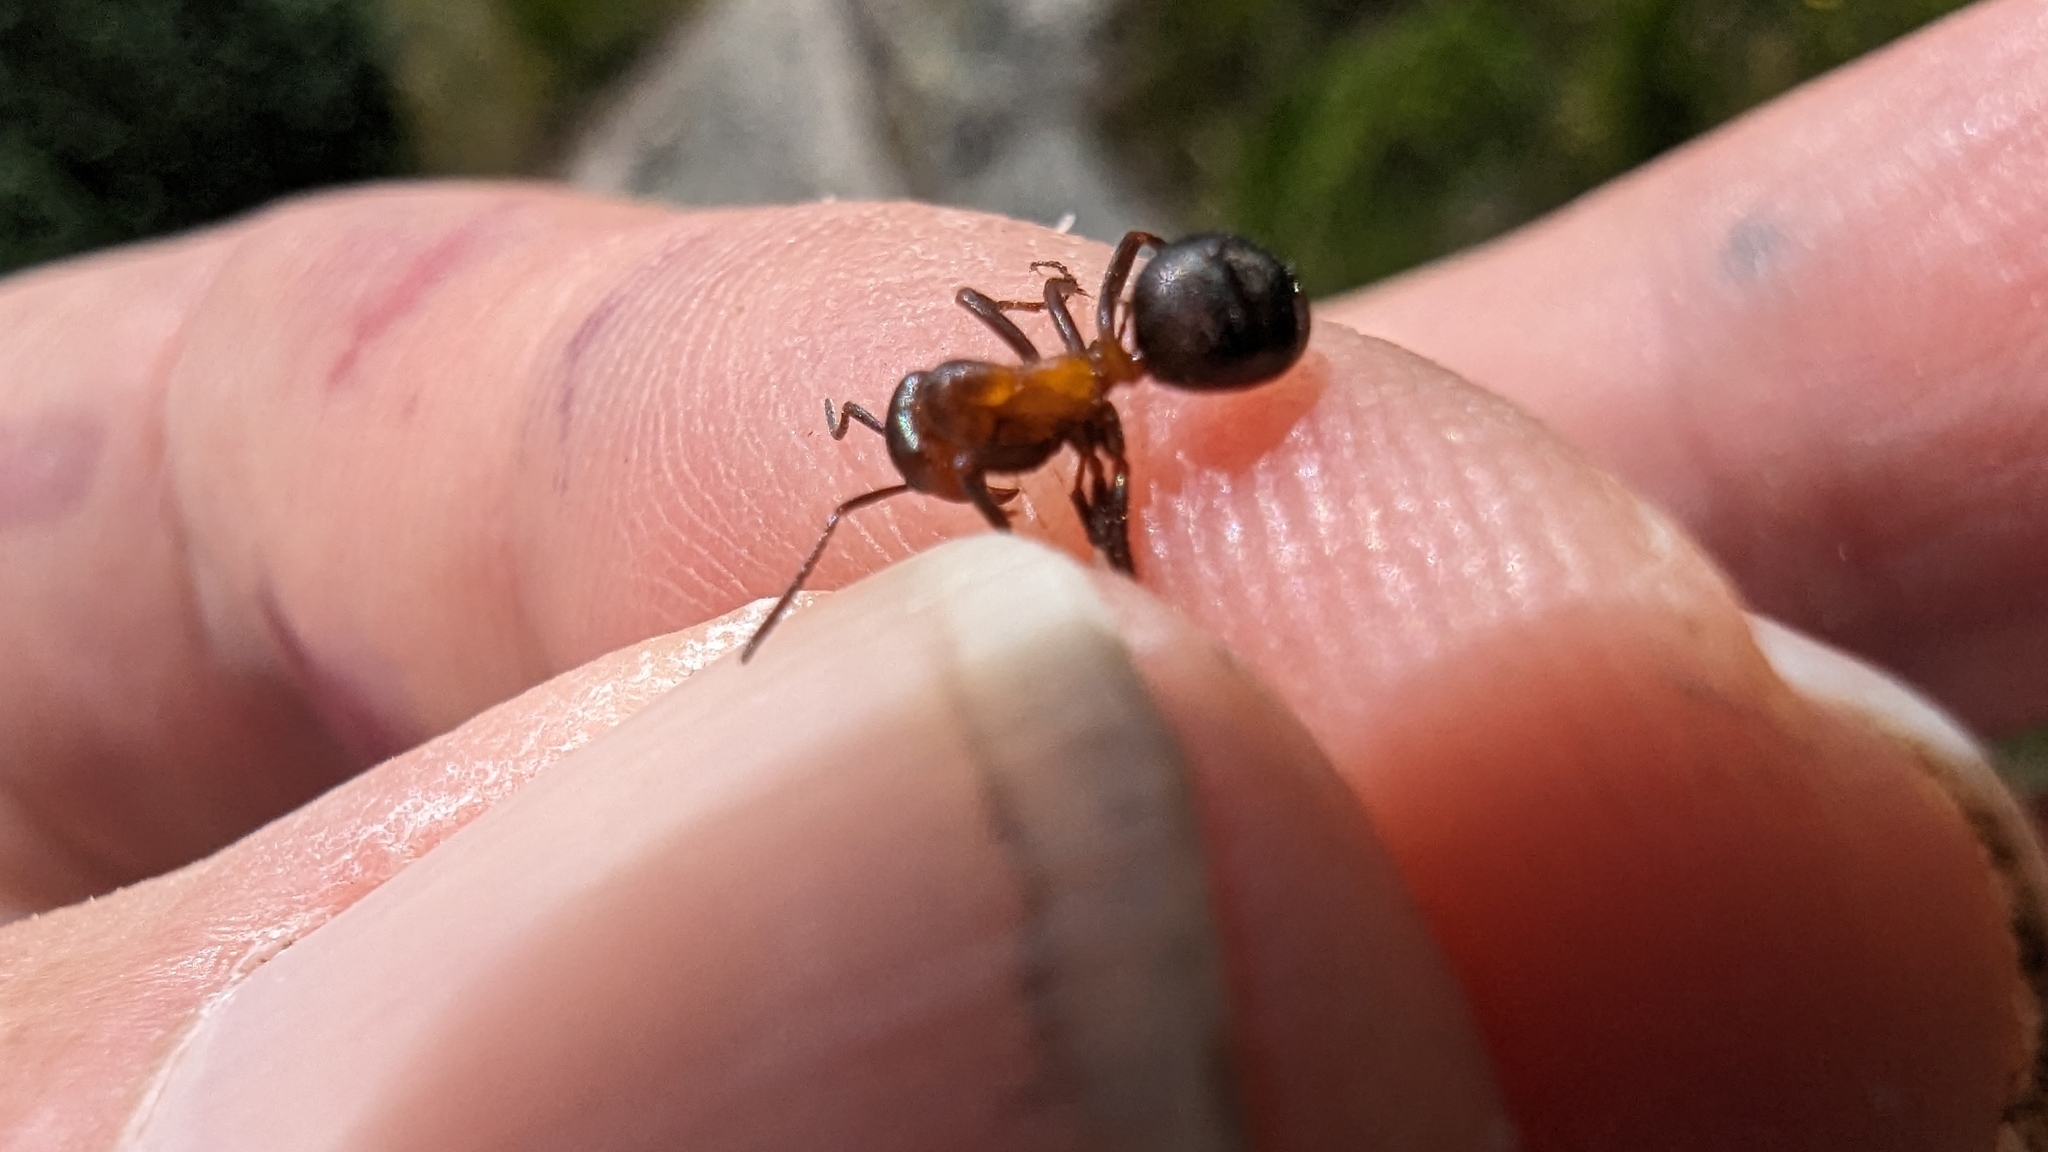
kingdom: Animalia
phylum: Arthropoda
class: Insecta
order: Hymenoptera
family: Formicidae
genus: Formica
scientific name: Formica
